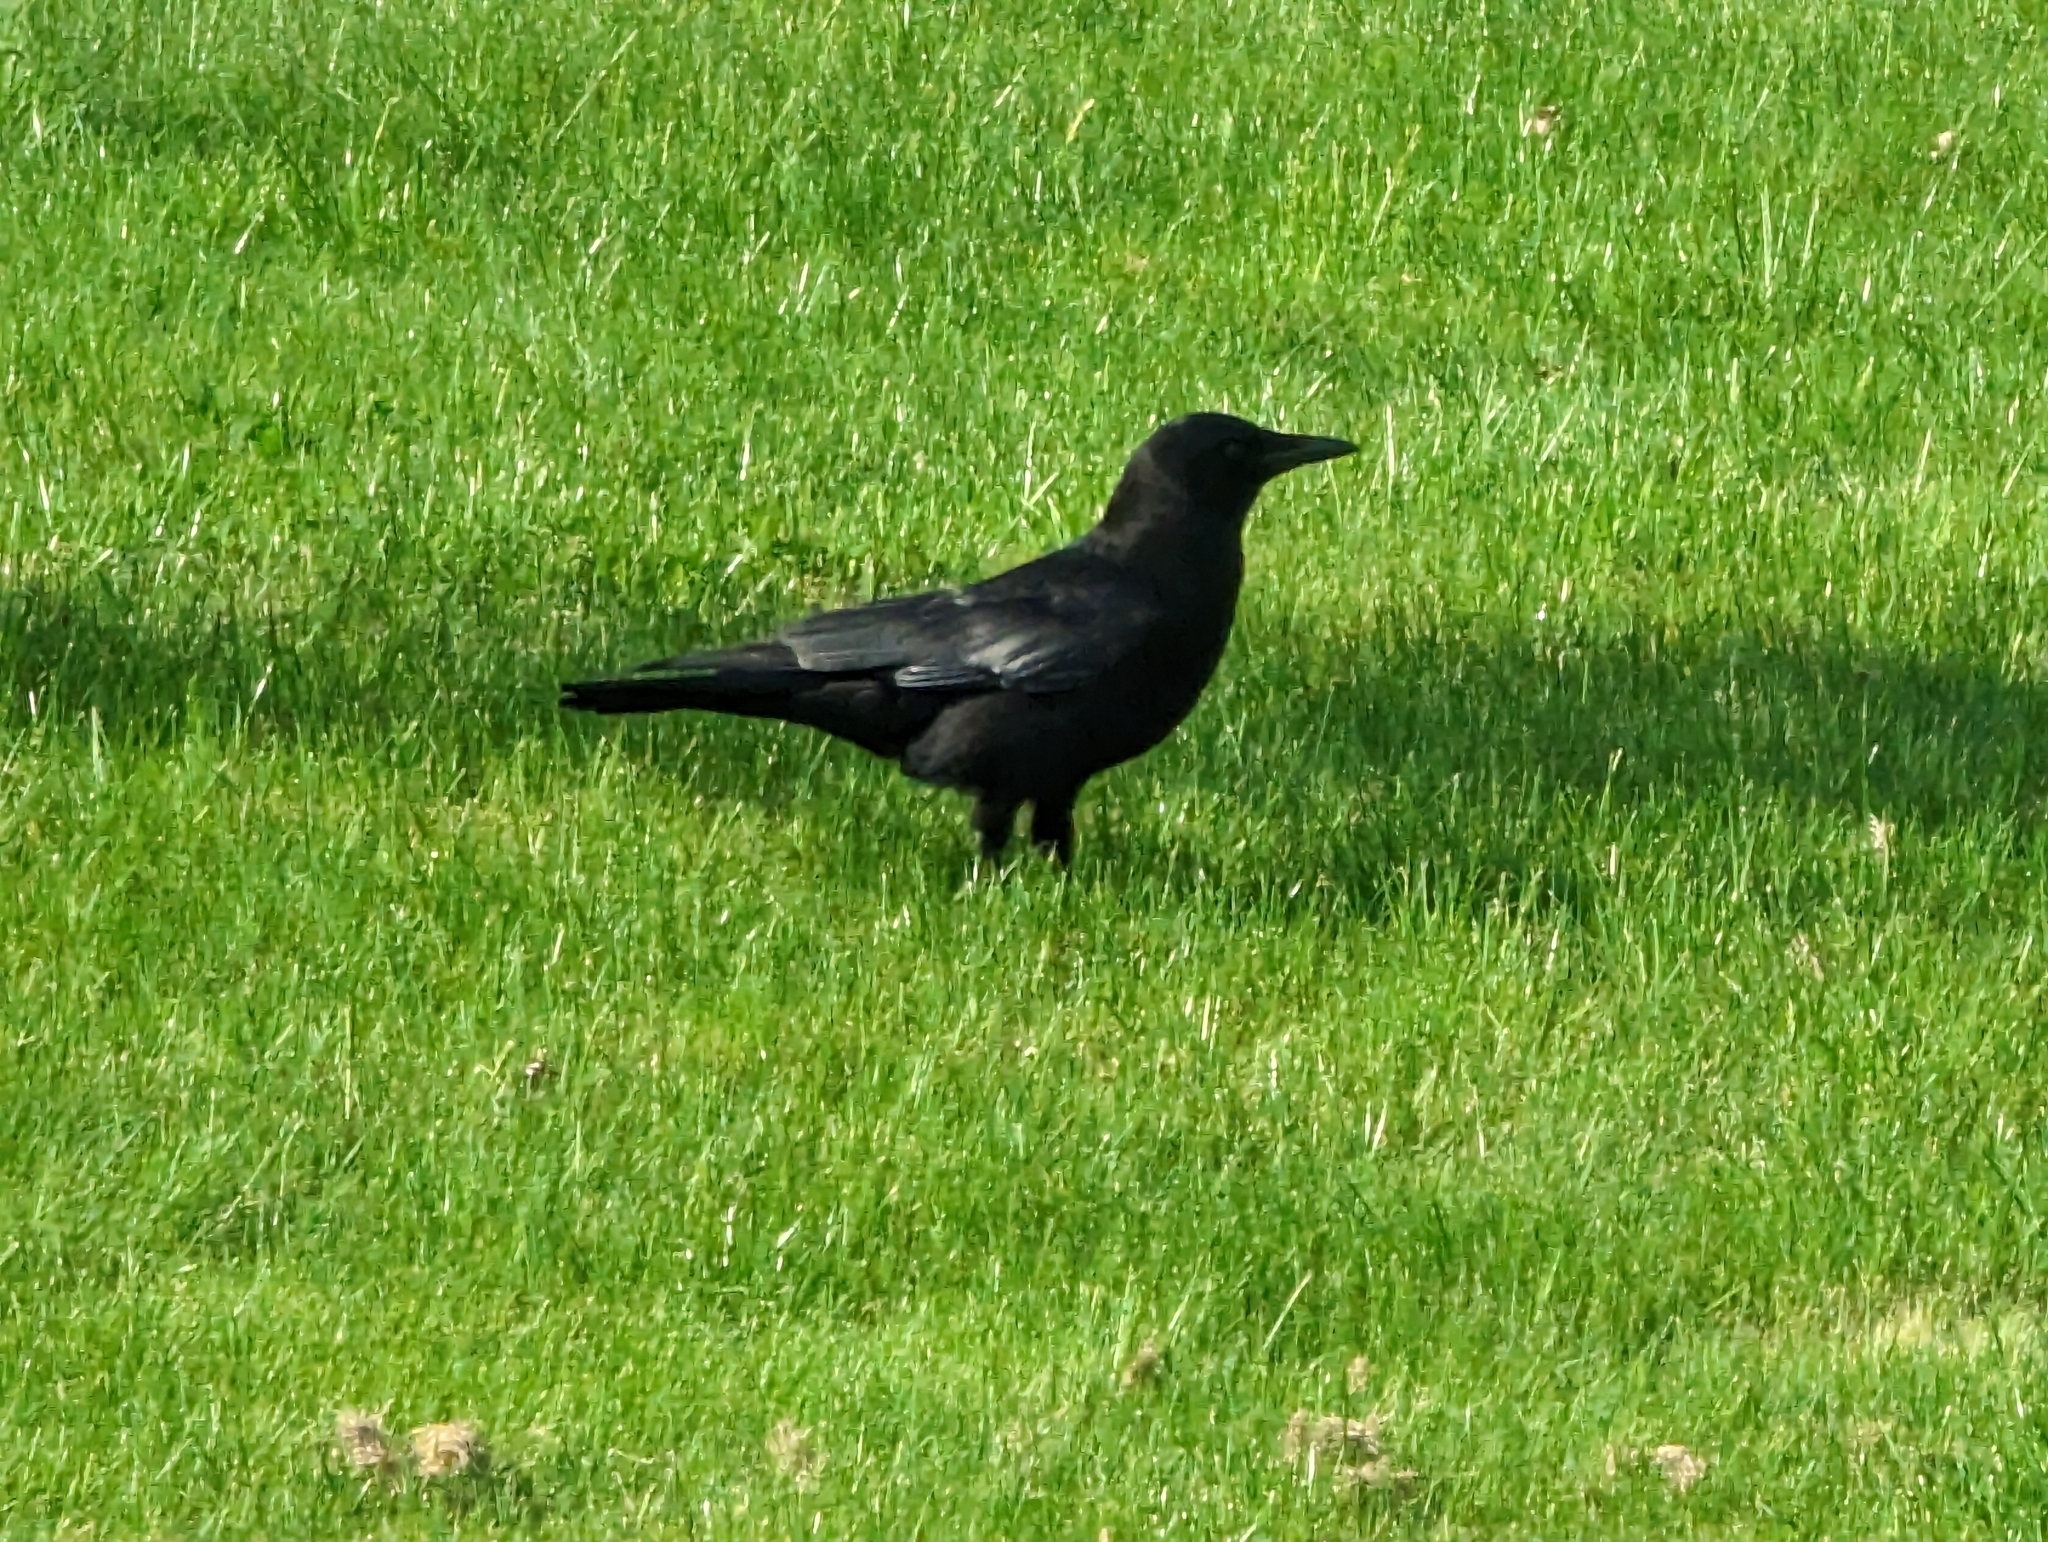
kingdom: Animalia
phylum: Chordata
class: Aves
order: Passeriformes
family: Corvidae
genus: Corvus
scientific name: Corvus brachyrhynchos
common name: American crow
